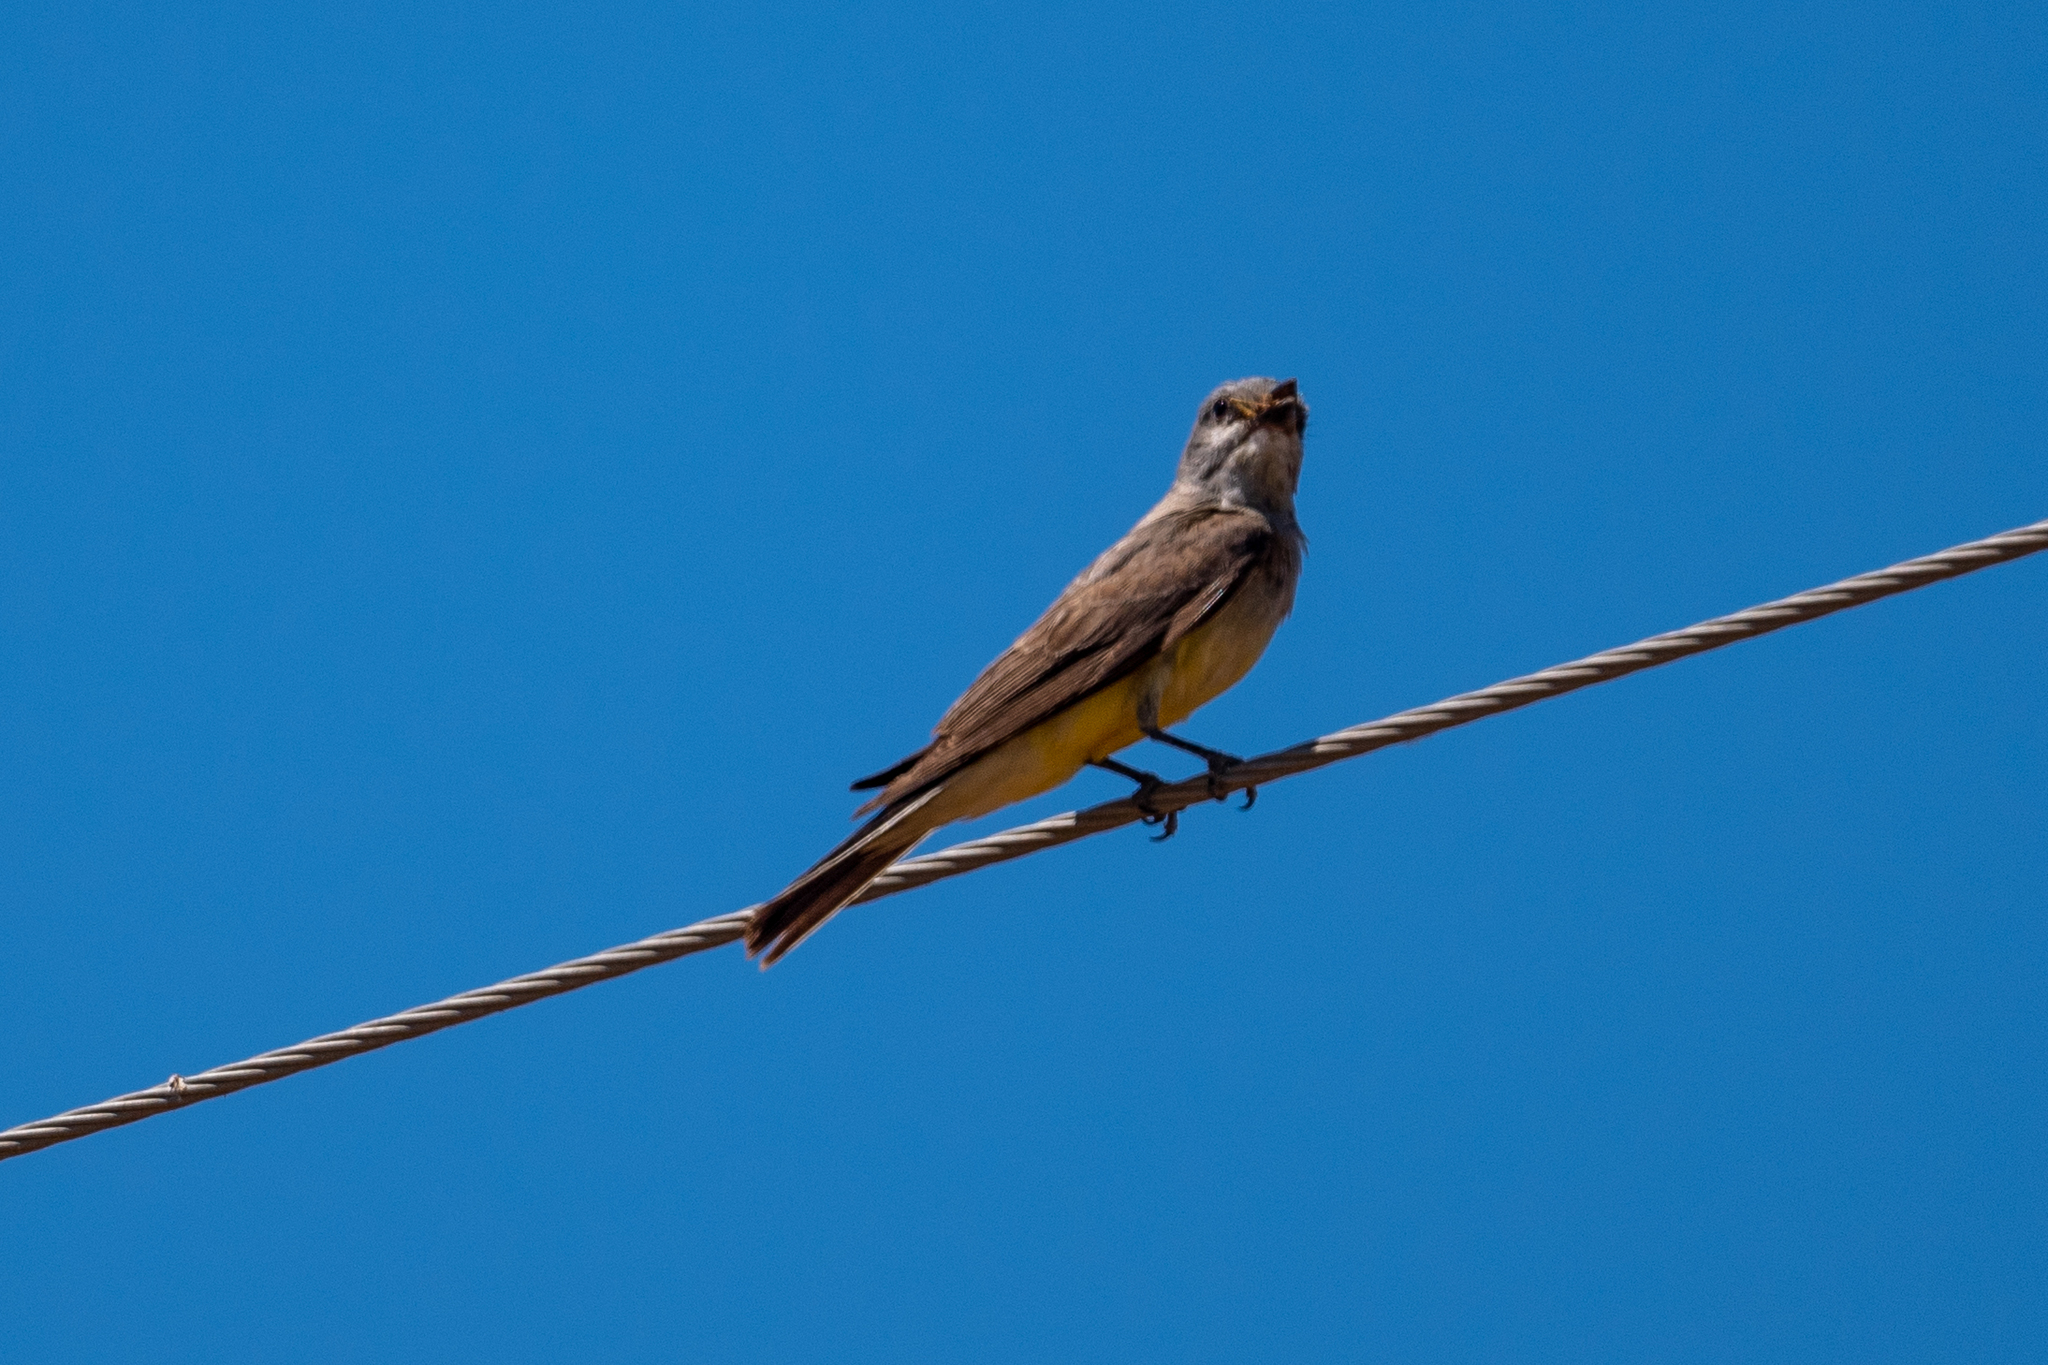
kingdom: Animalia
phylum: Chordata
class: Aves
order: Passeriformes
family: Tyrannidae
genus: Tyrannus
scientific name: Tyrannus verticalis
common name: Western kingbird
